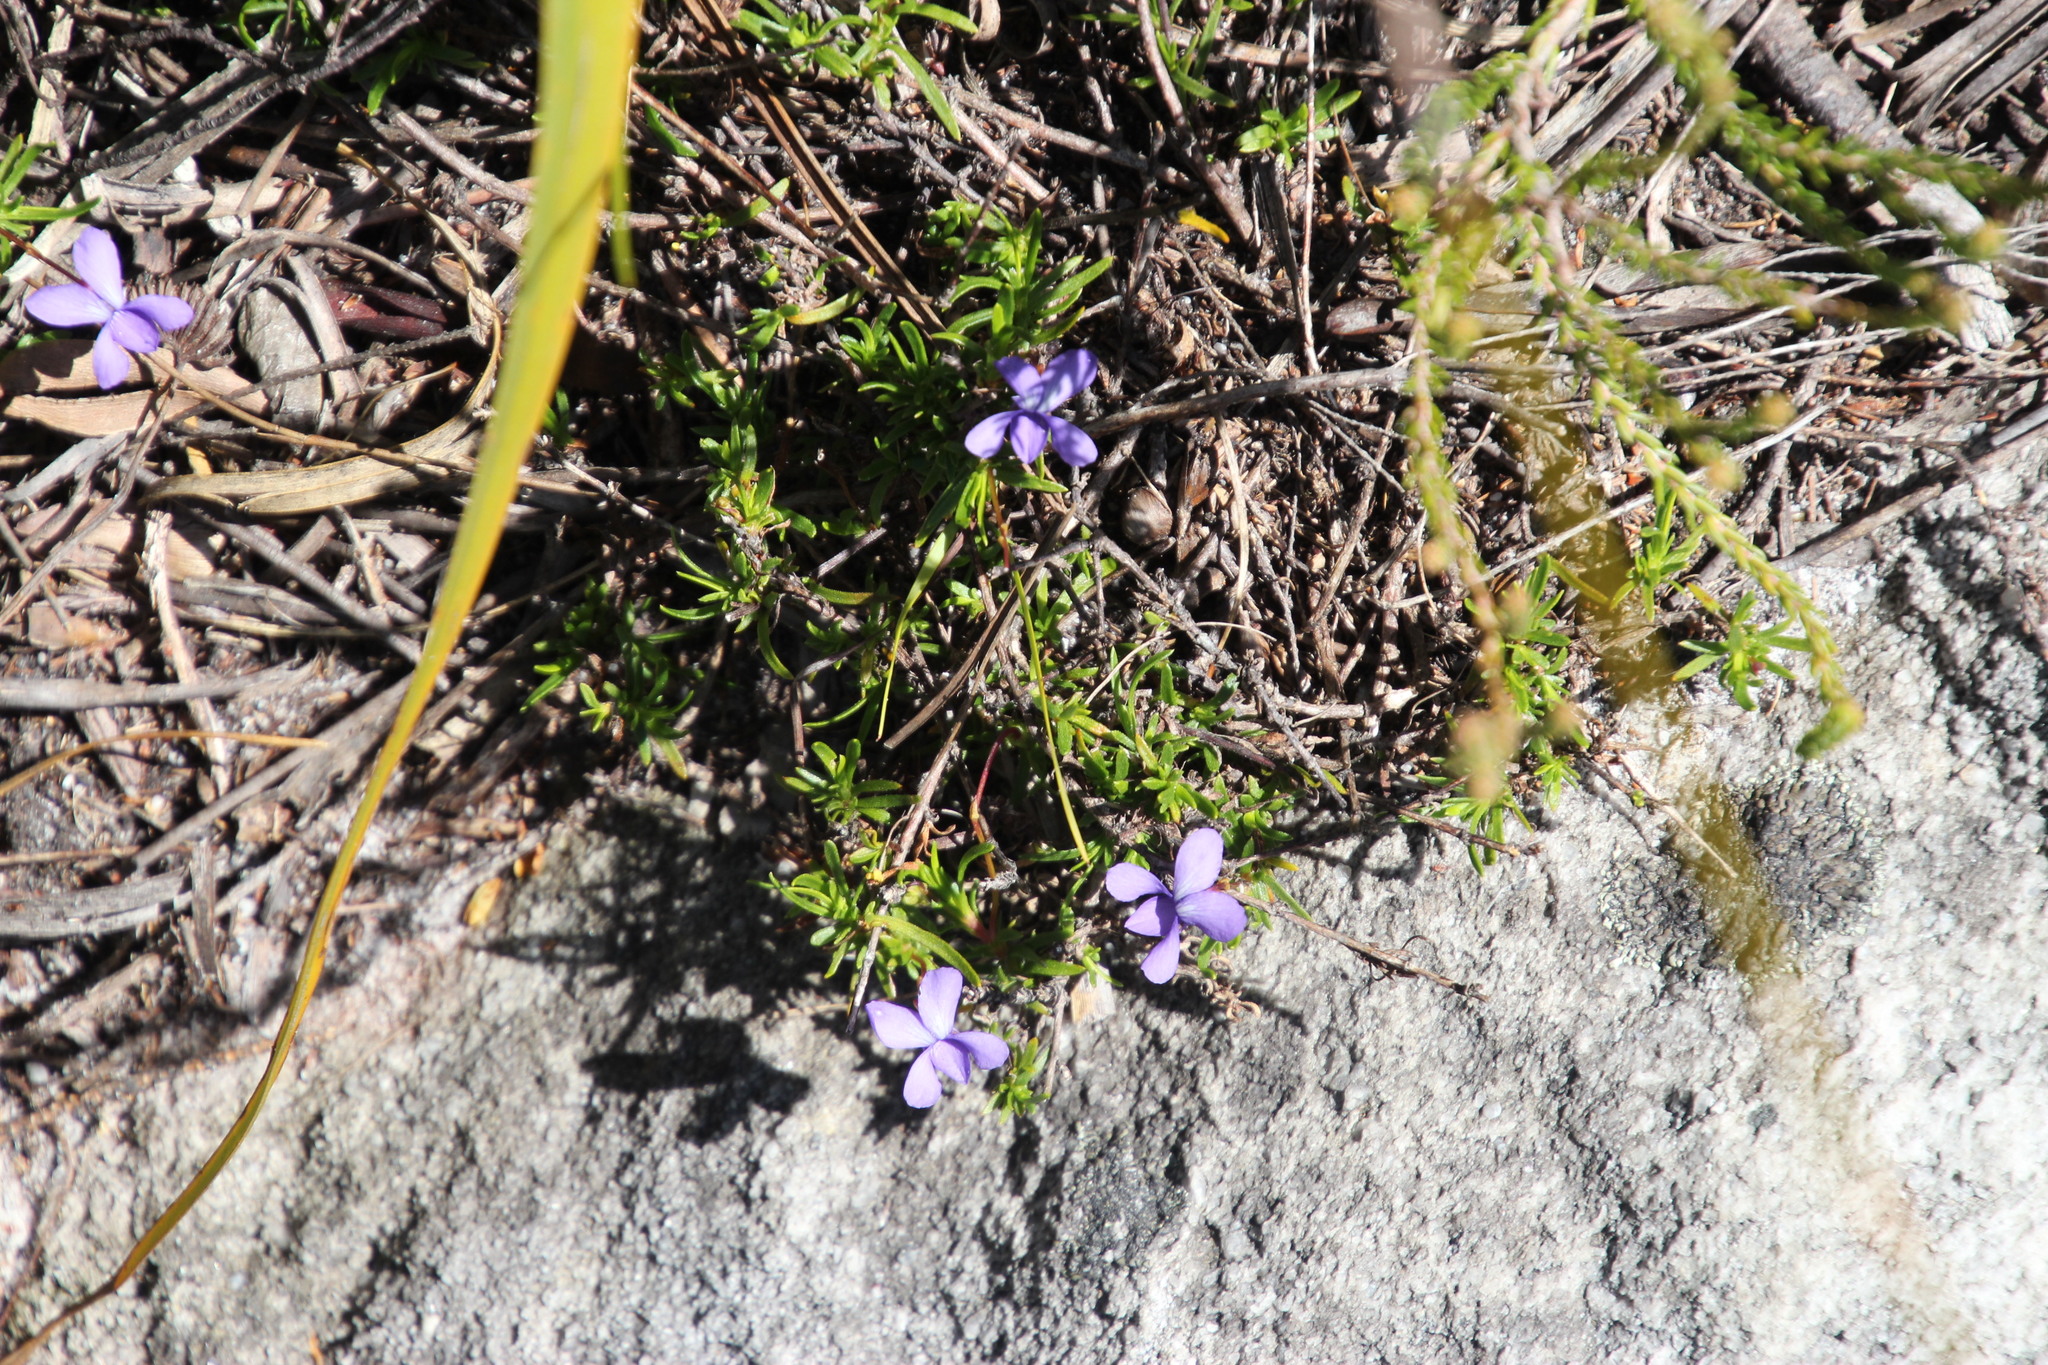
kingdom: Plantae
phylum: Tracheophyta
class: Magnoliopsida
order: Malpighiales
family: Violaceae
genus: Viola
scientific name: Viola decumbens
